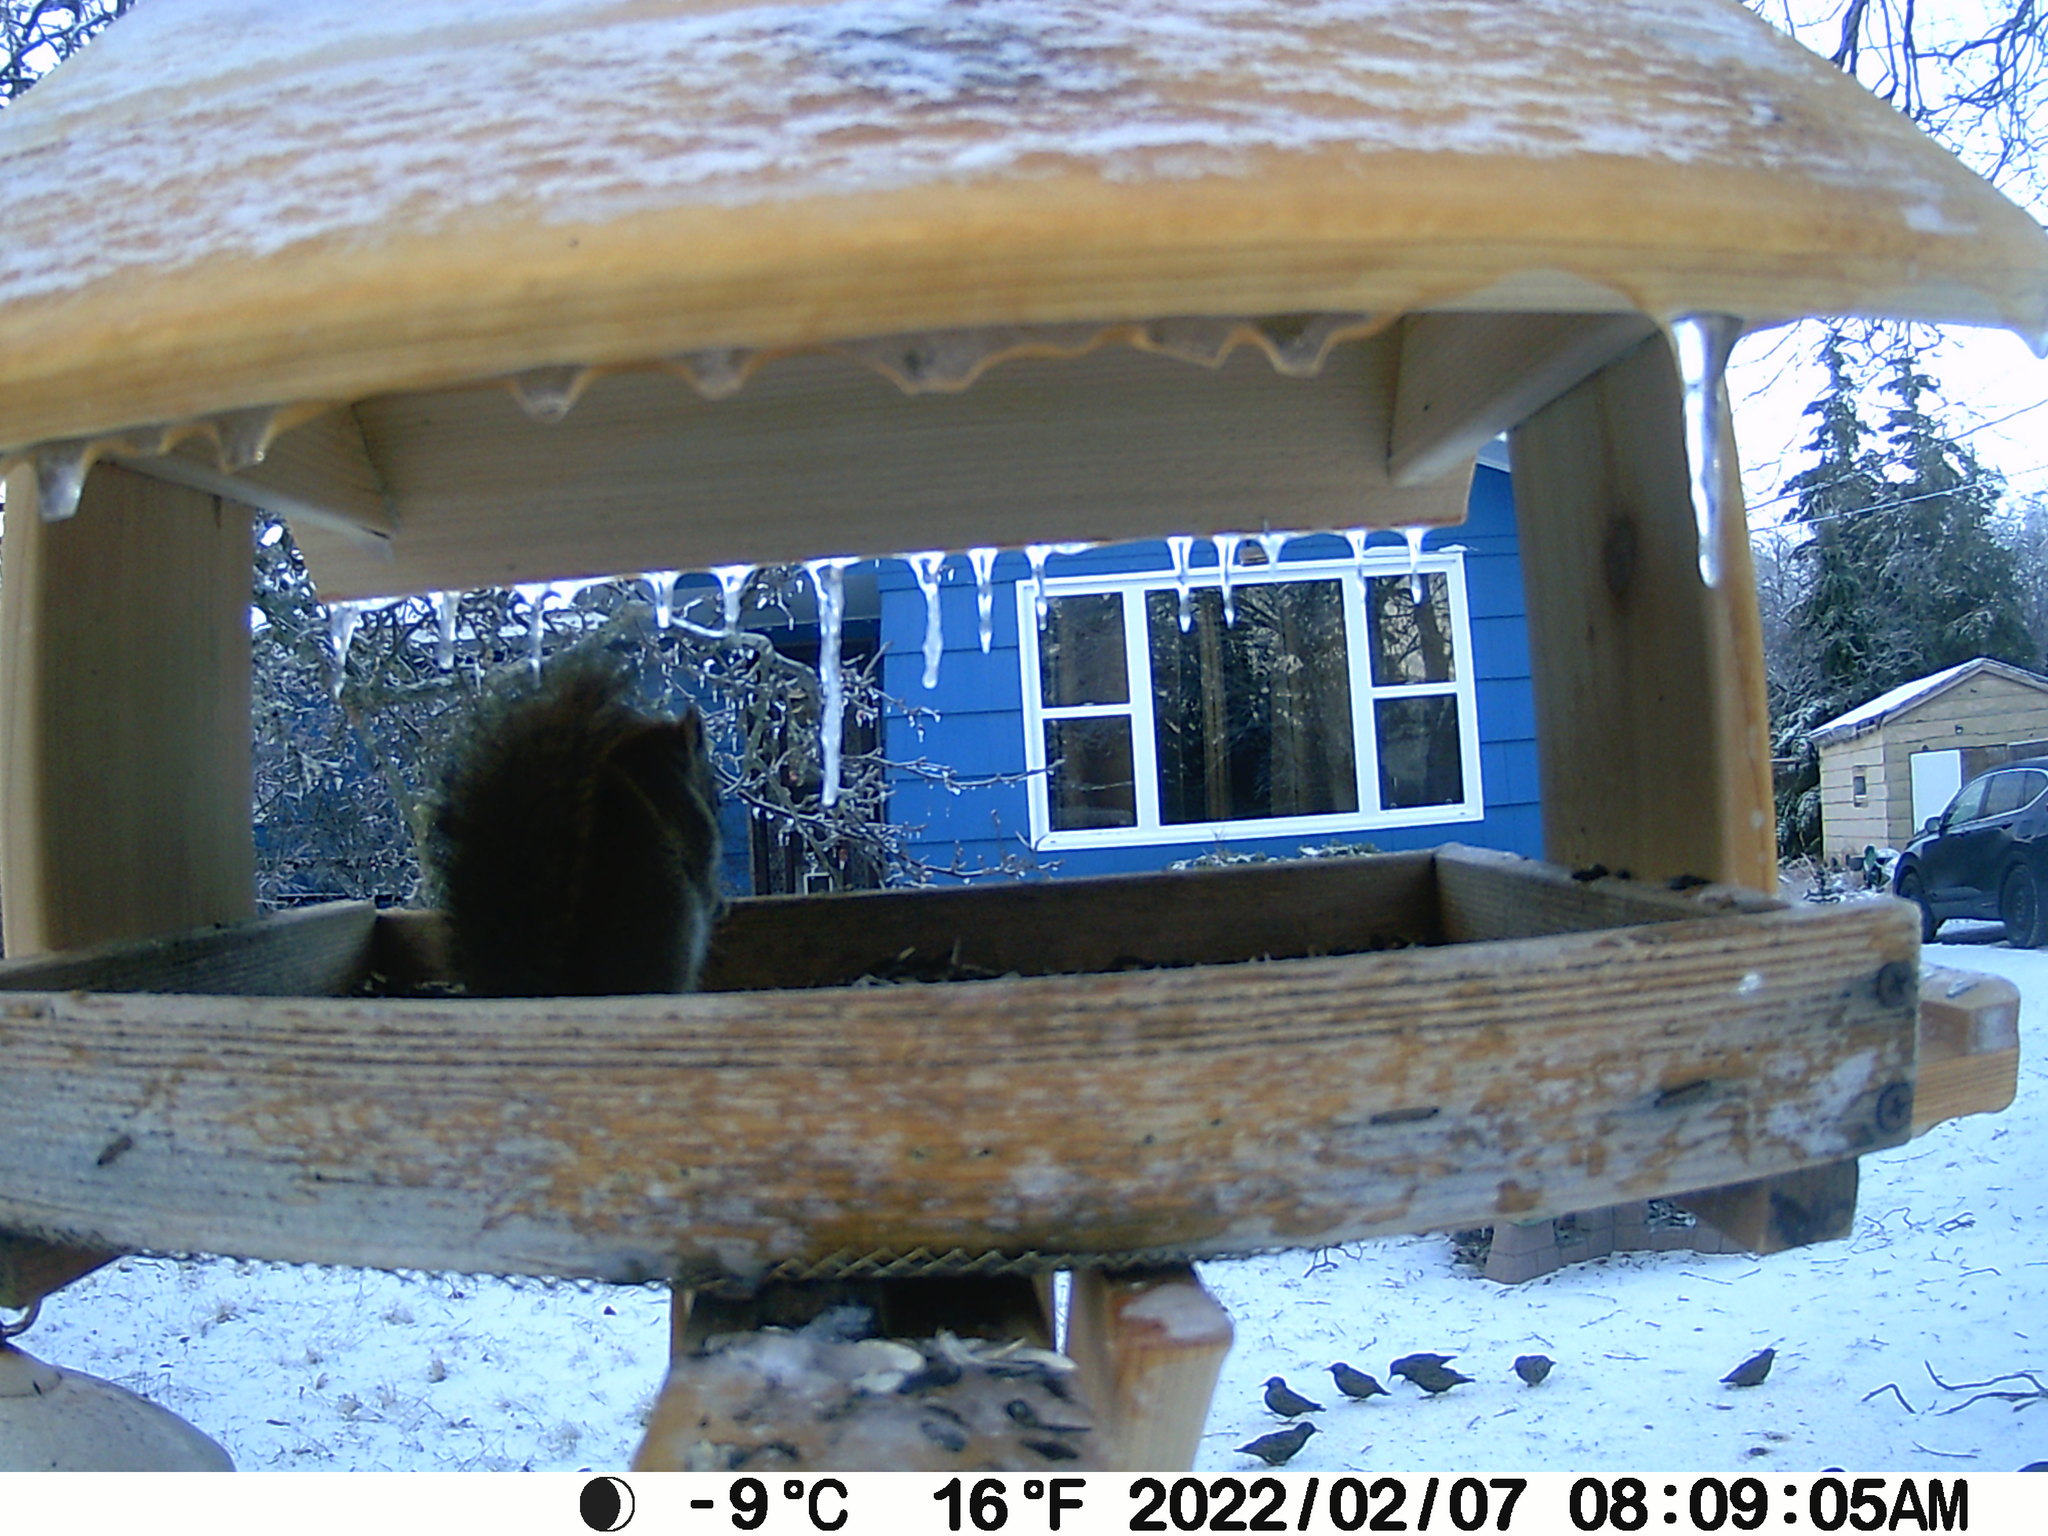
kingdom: Animalia
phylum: Chordata
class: Aves
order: Passeriformes
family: Sturnidae
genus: Sturnus
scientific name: Sturnus vulgaris
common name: Common starling
